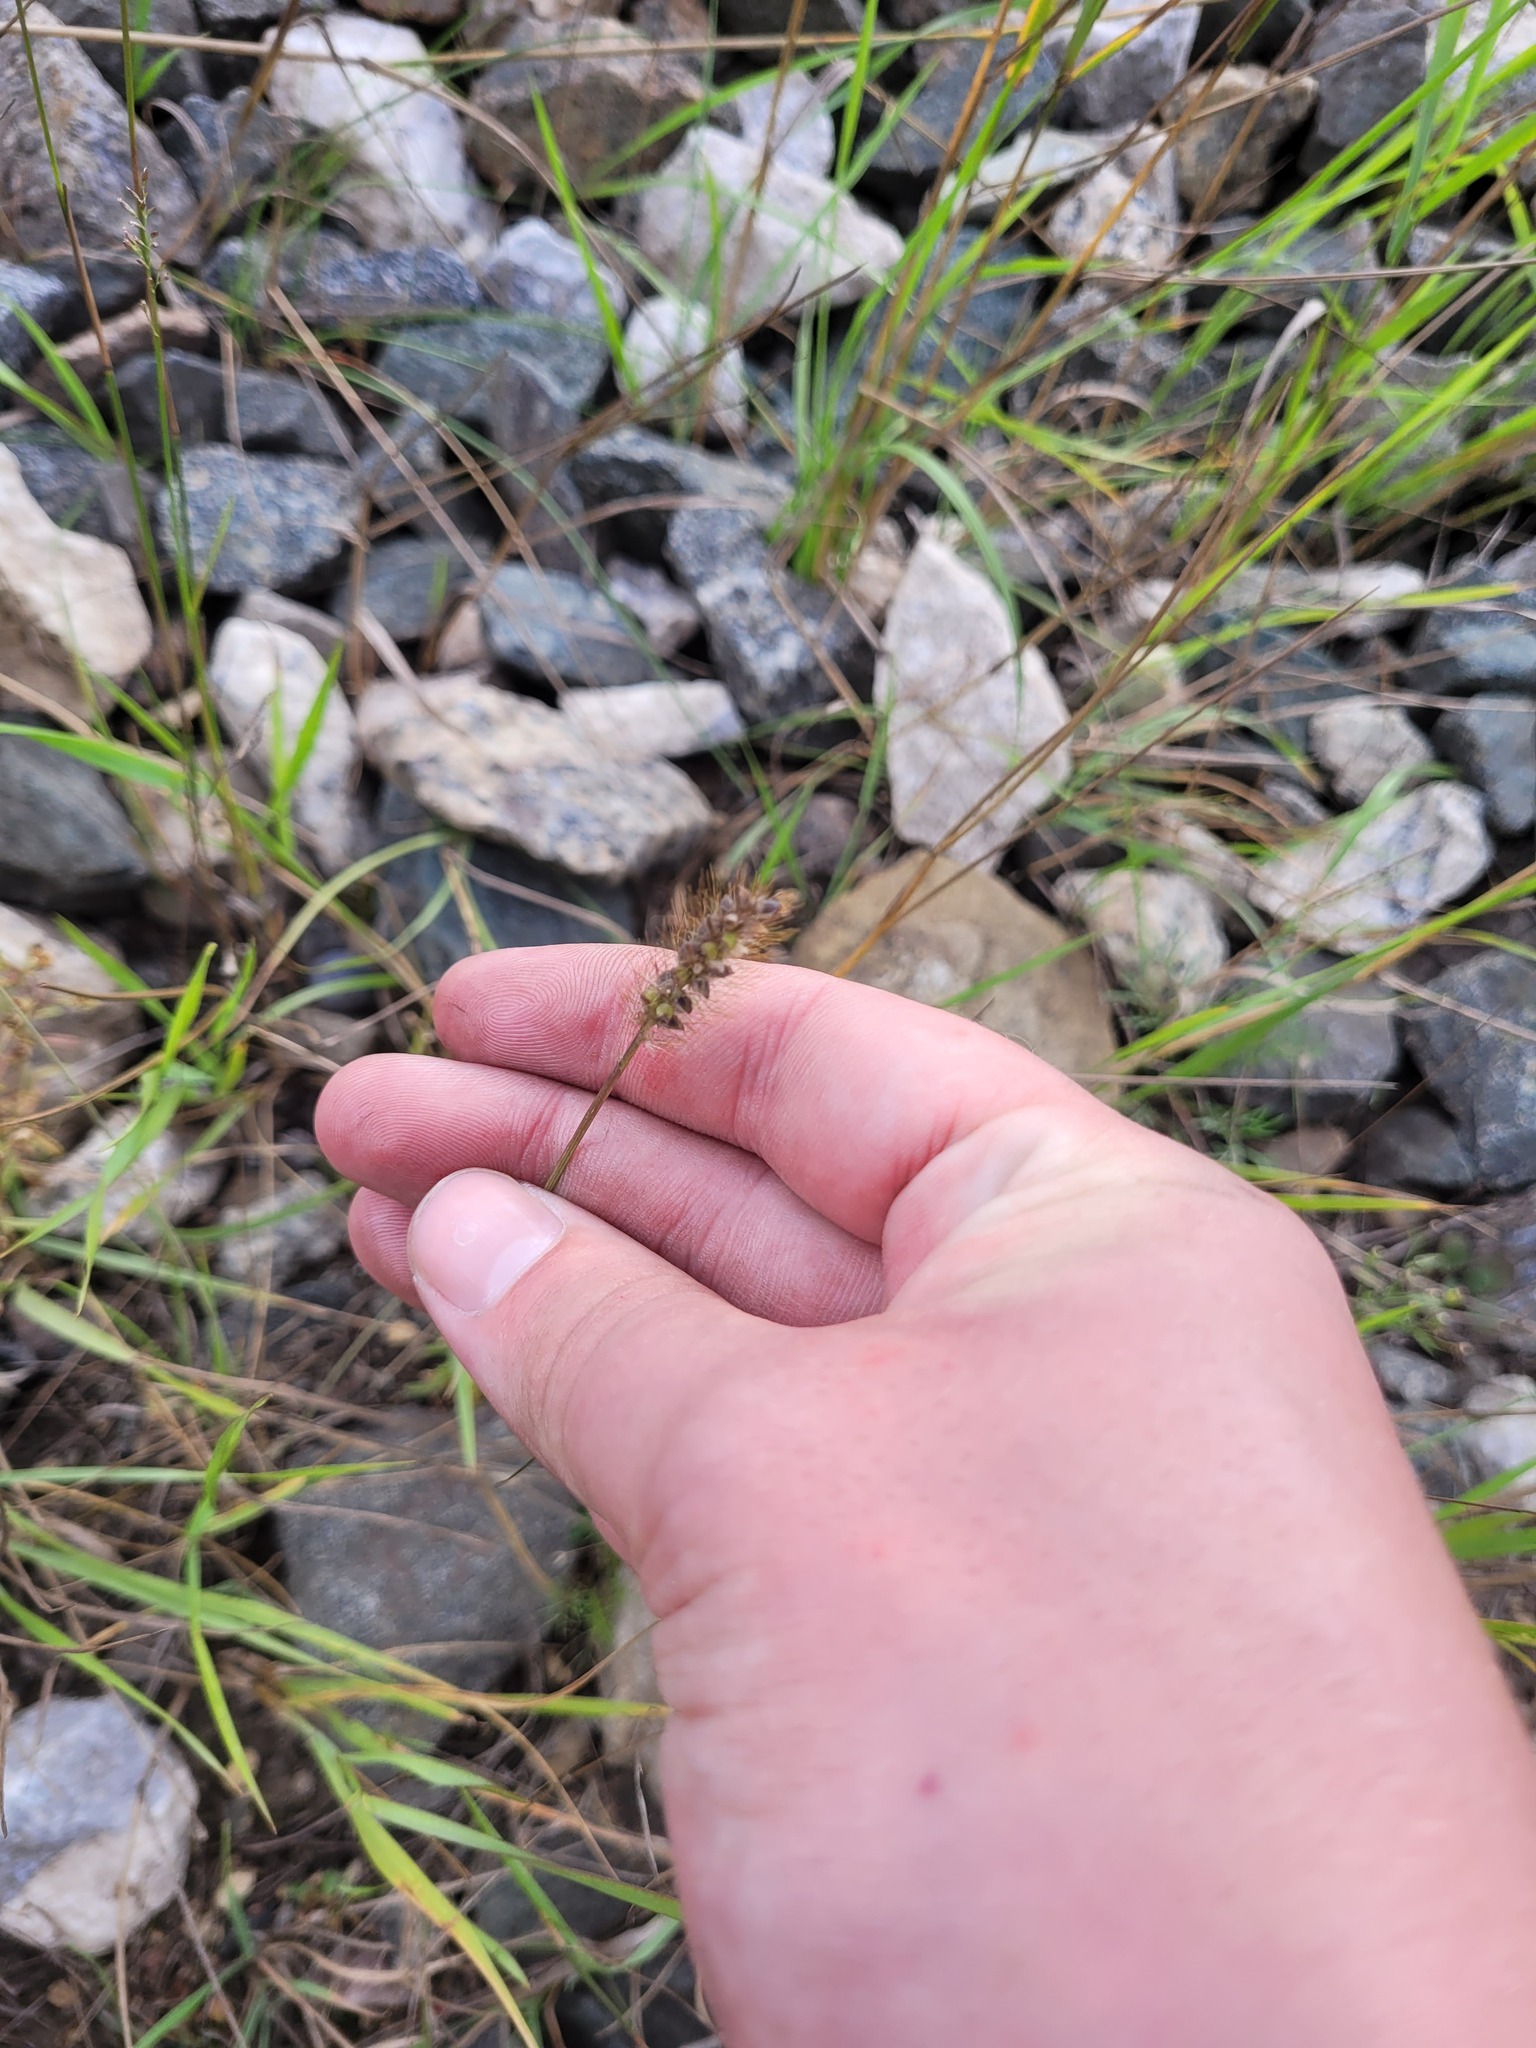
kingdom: Plantae
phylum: Tracheophyta
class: Liliopsida
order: Poales
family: Poaceae
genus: Setaria
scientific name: Setaria pumila
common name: Yellow bristle-grass
